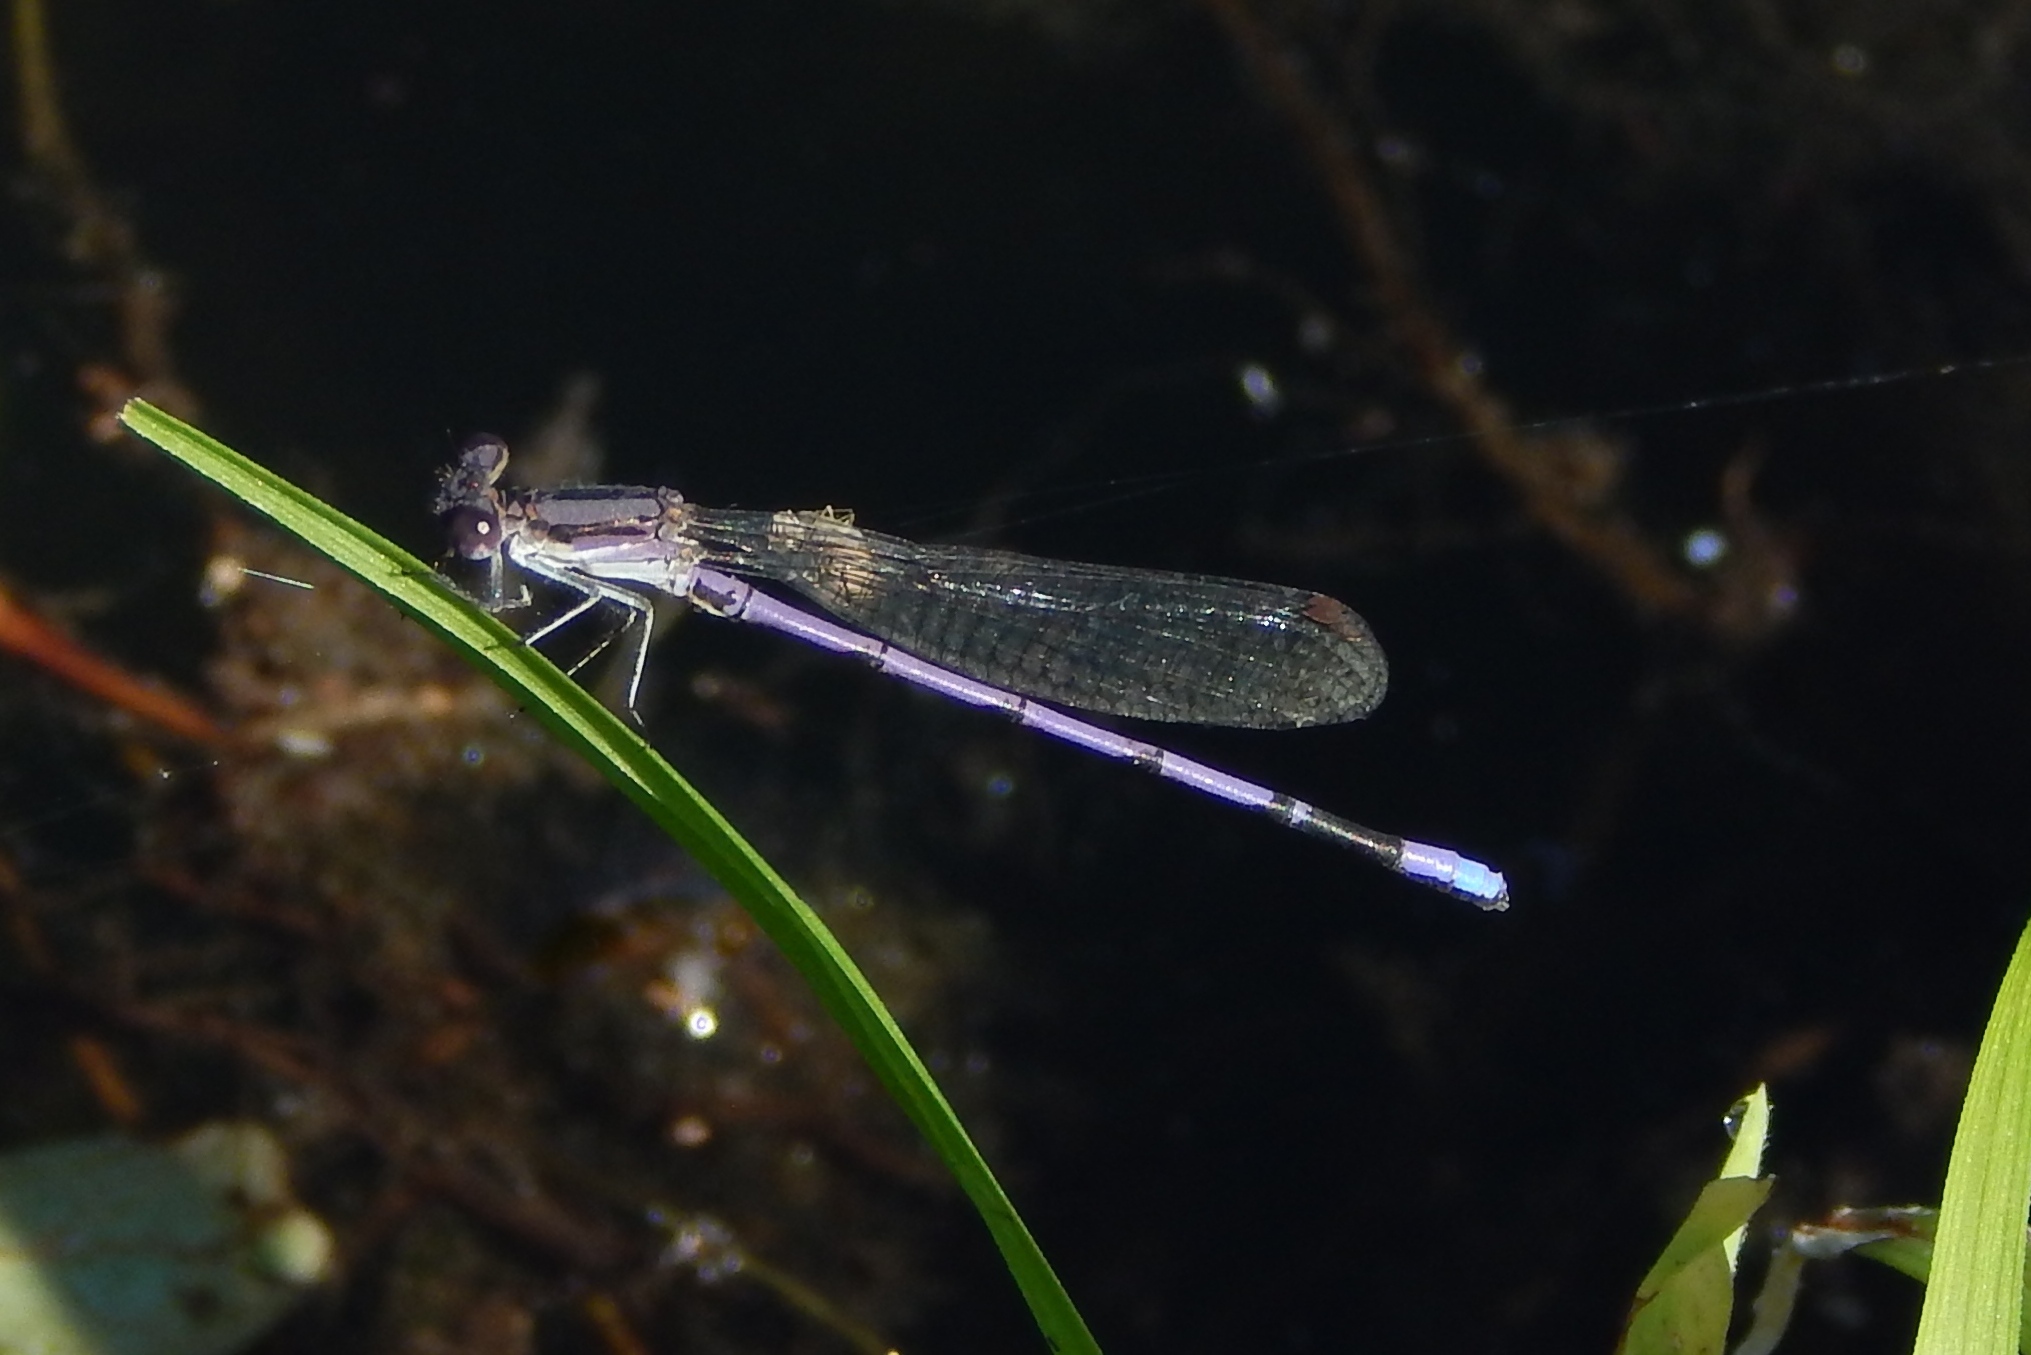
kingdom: Animalia
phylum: Arthropoda
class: Insecta
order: Odonata
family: Coenagrionidae
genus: Argia
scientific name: Argia fumipennis
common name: Variable dancer
